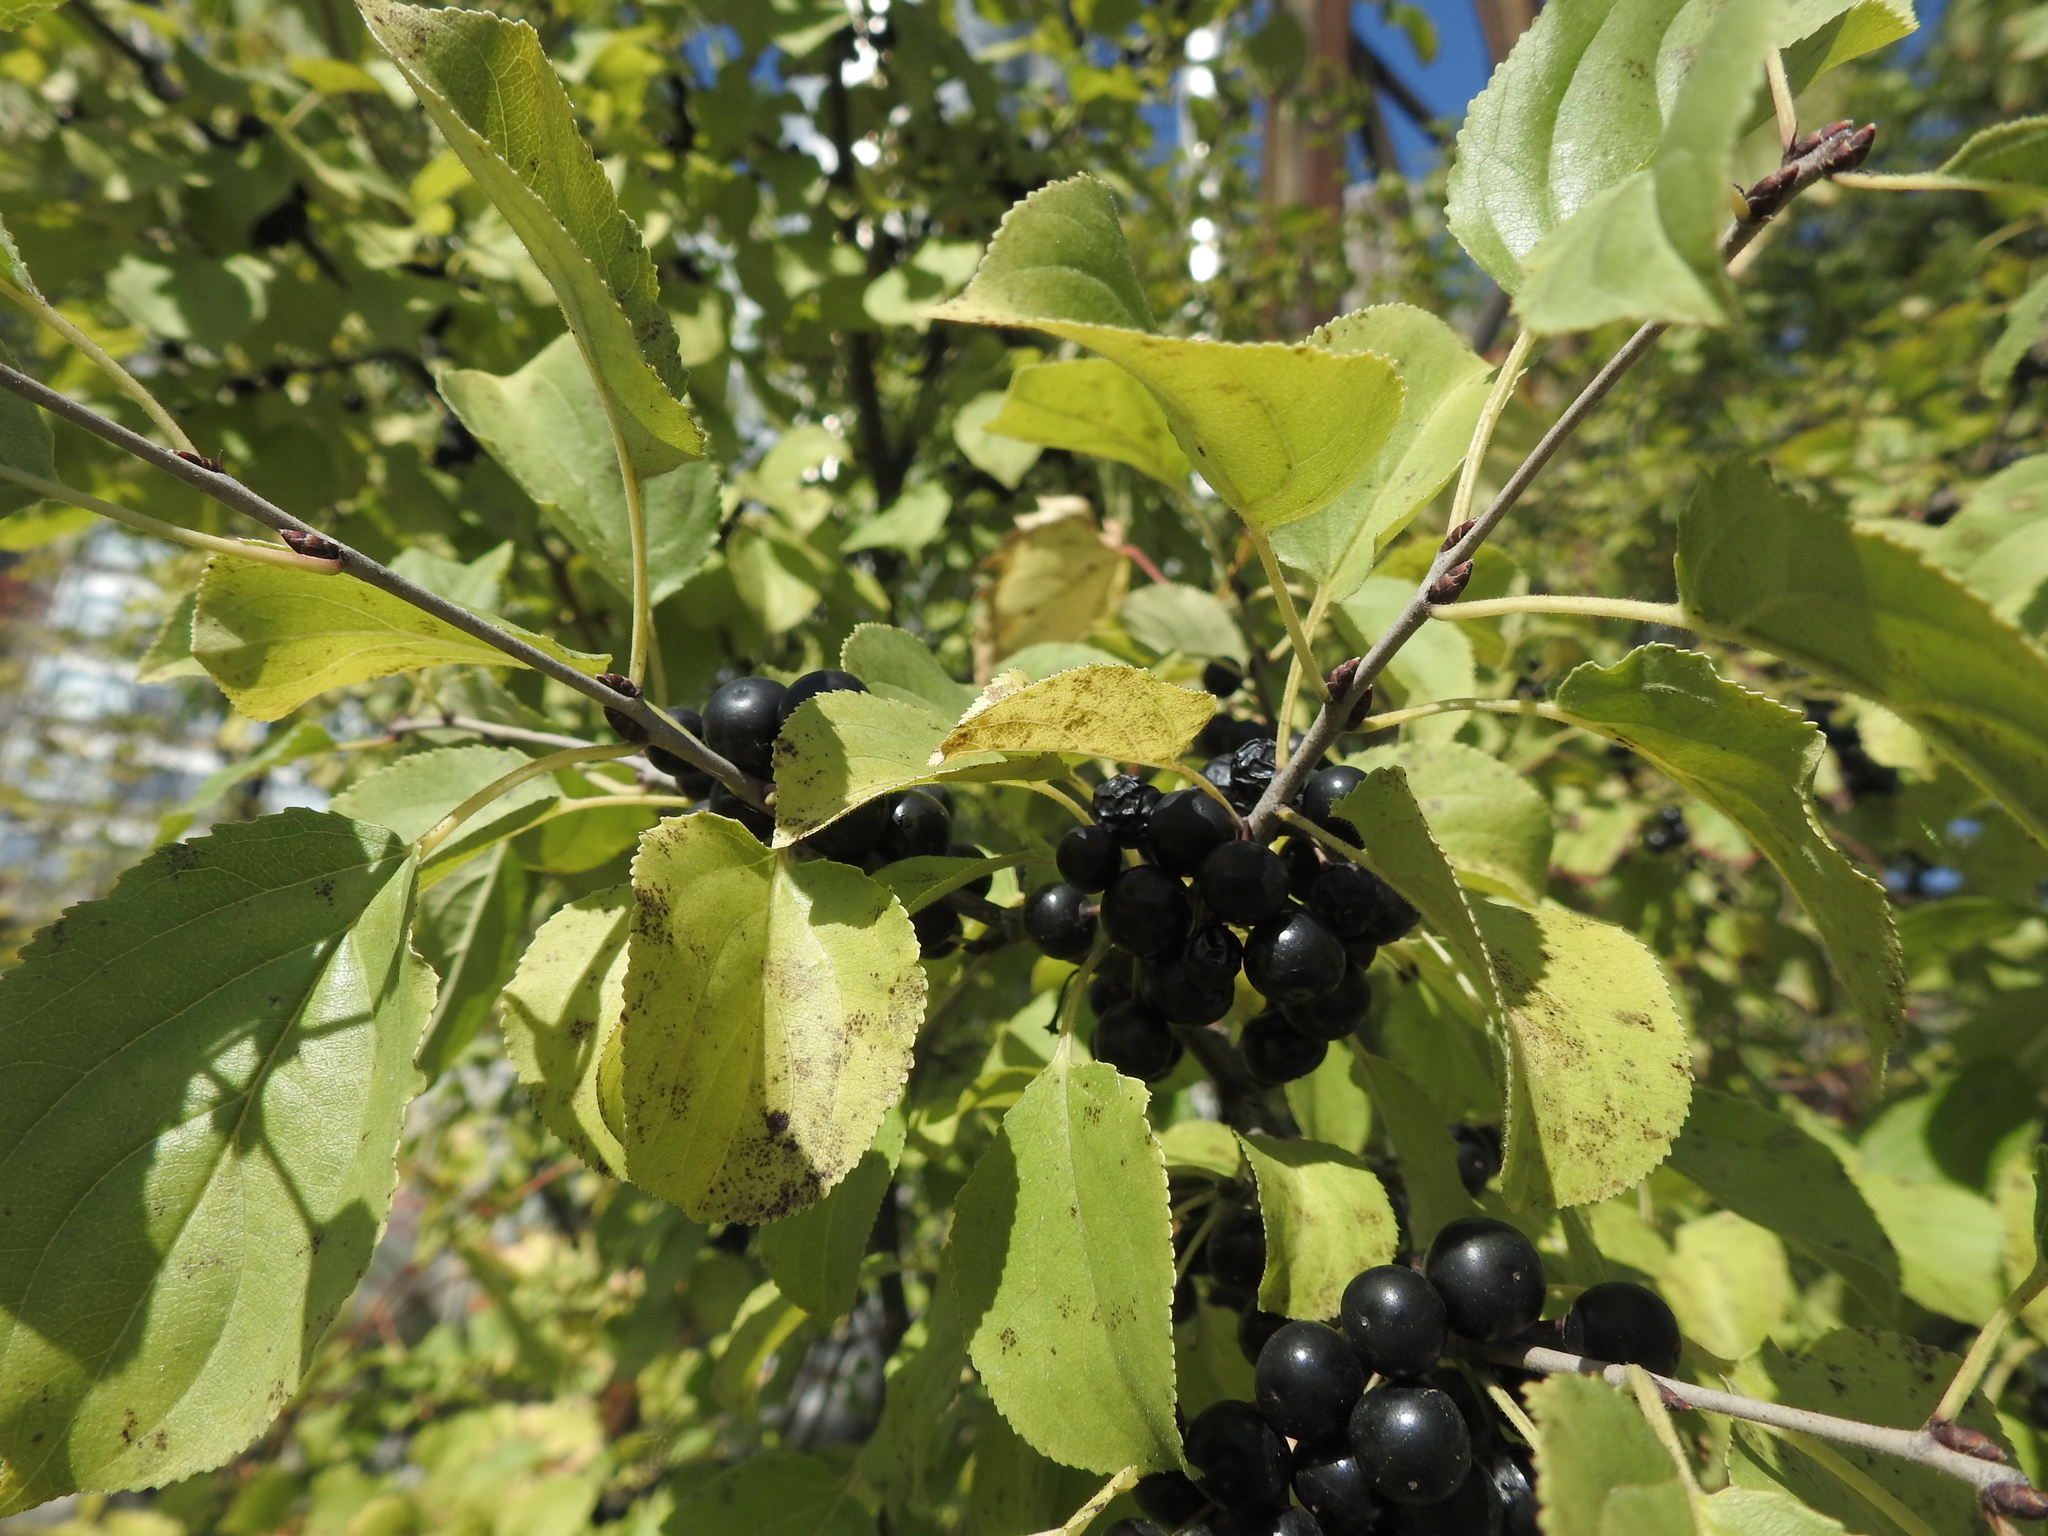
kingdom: Plantae
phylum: Tracheophyta
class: Magnoliopsida
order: Rosales
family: Rhamnaceae
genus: Rhamnus
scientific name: Rhamnus cathartica
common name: Common buckthorn
